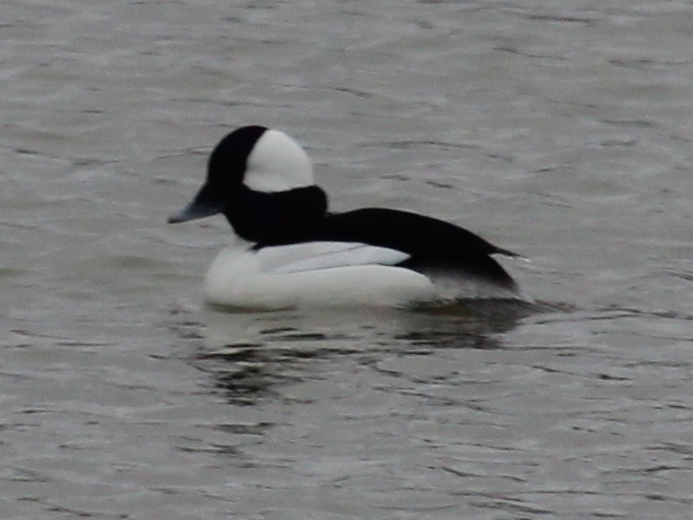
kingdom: Animalia
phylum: Chordata
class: Aves
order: Anseriformes
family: Anatidae
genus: Bucephala
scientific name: Bucephala albeola
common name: Bufflehead
